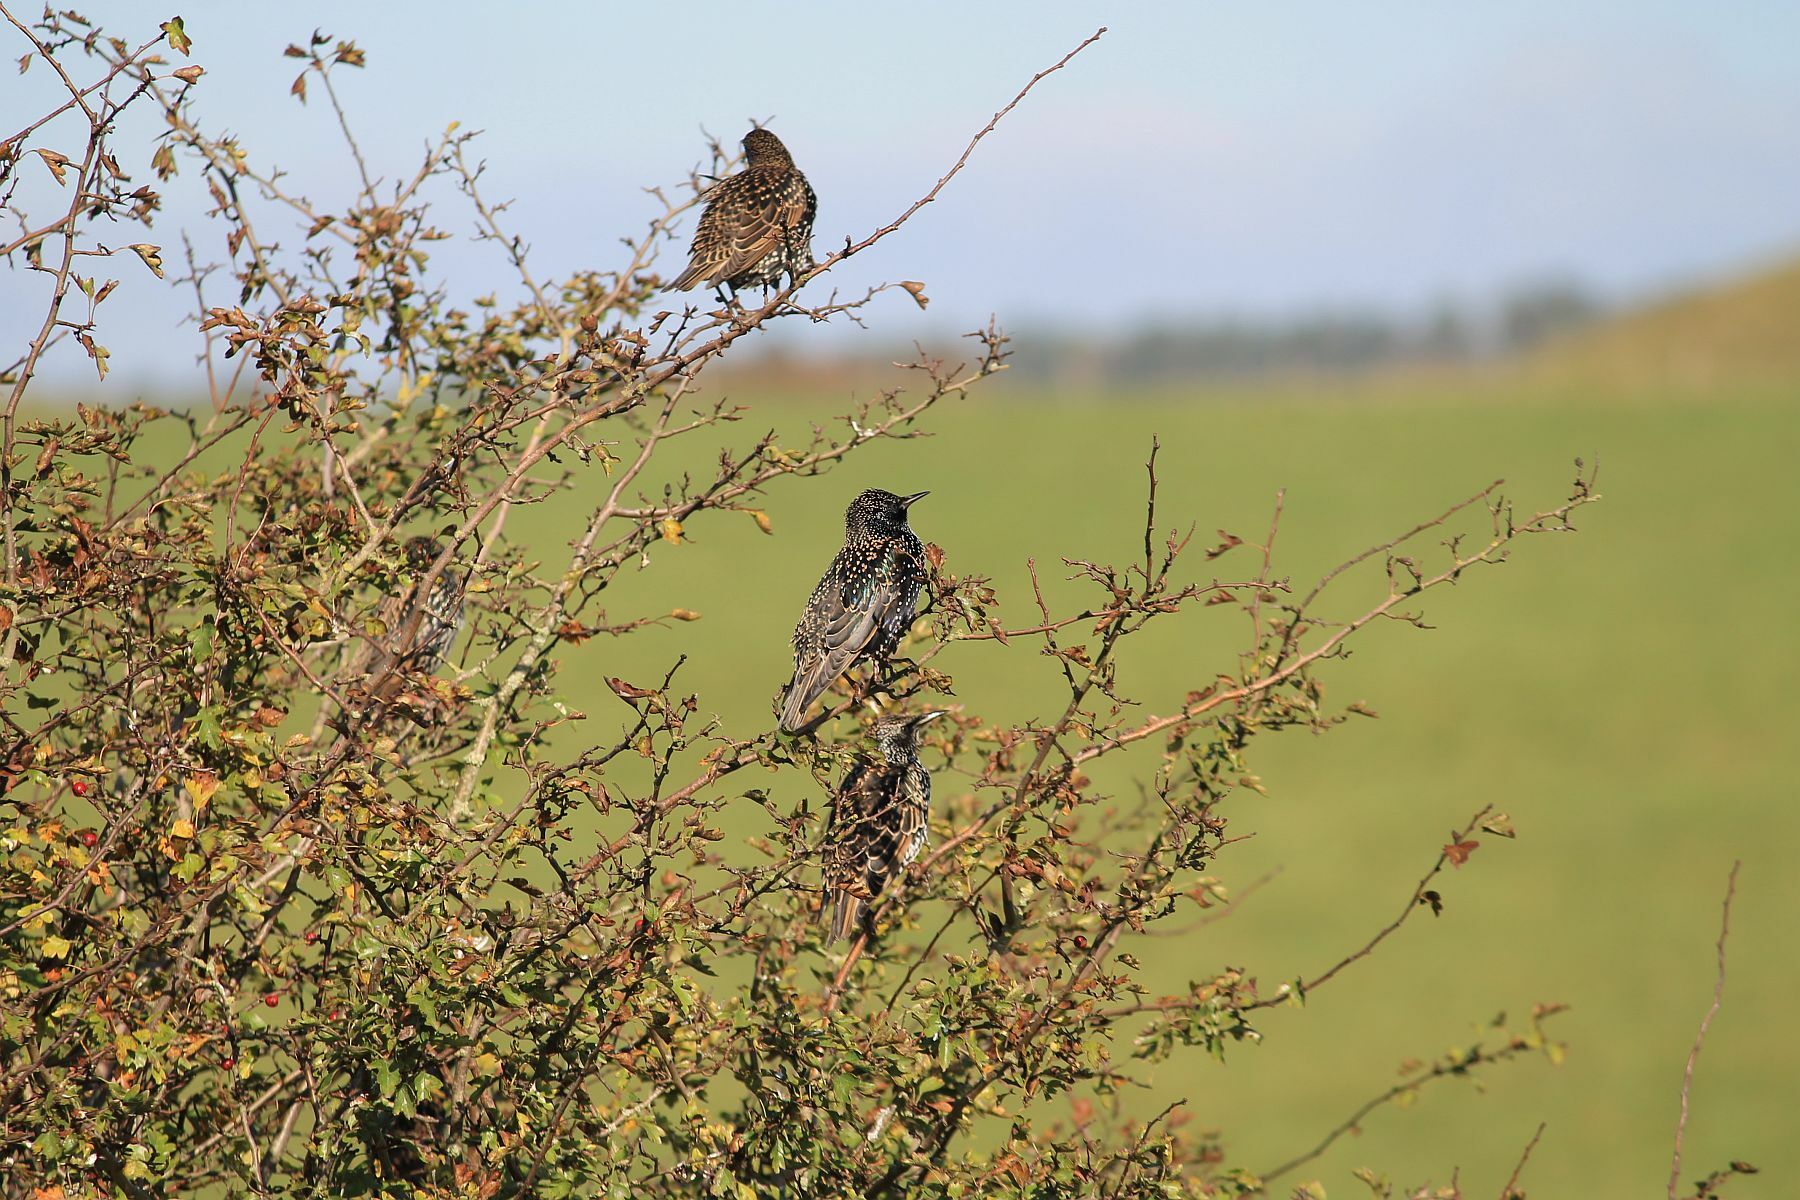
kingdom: Animalia
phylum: Chordata
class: Aves
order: Passeriformes
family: Sturnidae
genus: Sturnus
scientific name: Sturnus vulgaris
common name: Common starling
